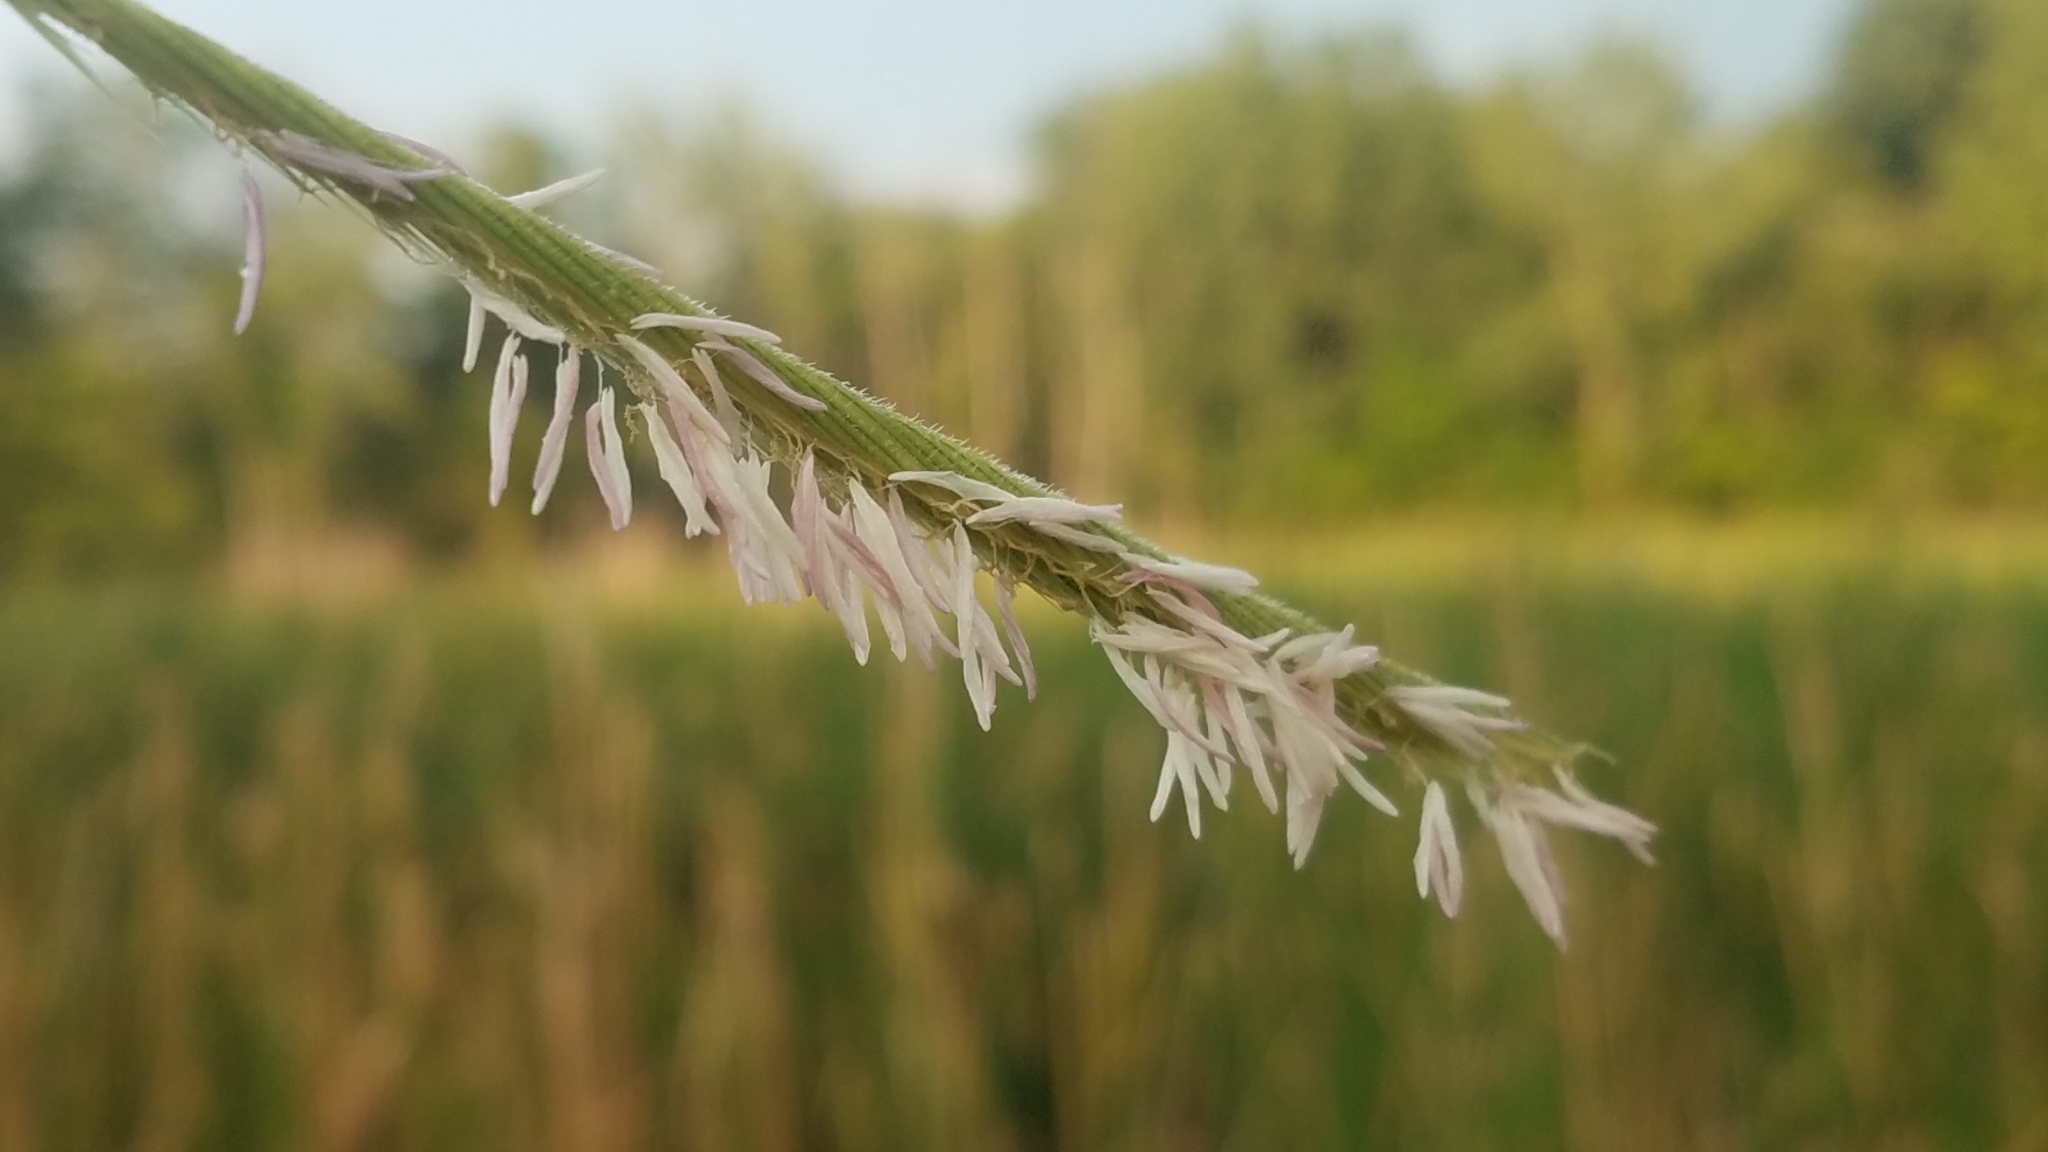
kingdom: Plantae
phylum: Tracheophyta
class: Liliopsida
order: Poales
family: Poaceae
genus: Sporobolus
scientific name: Sporobolus michauxianus
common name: Freshwater cordgrass
